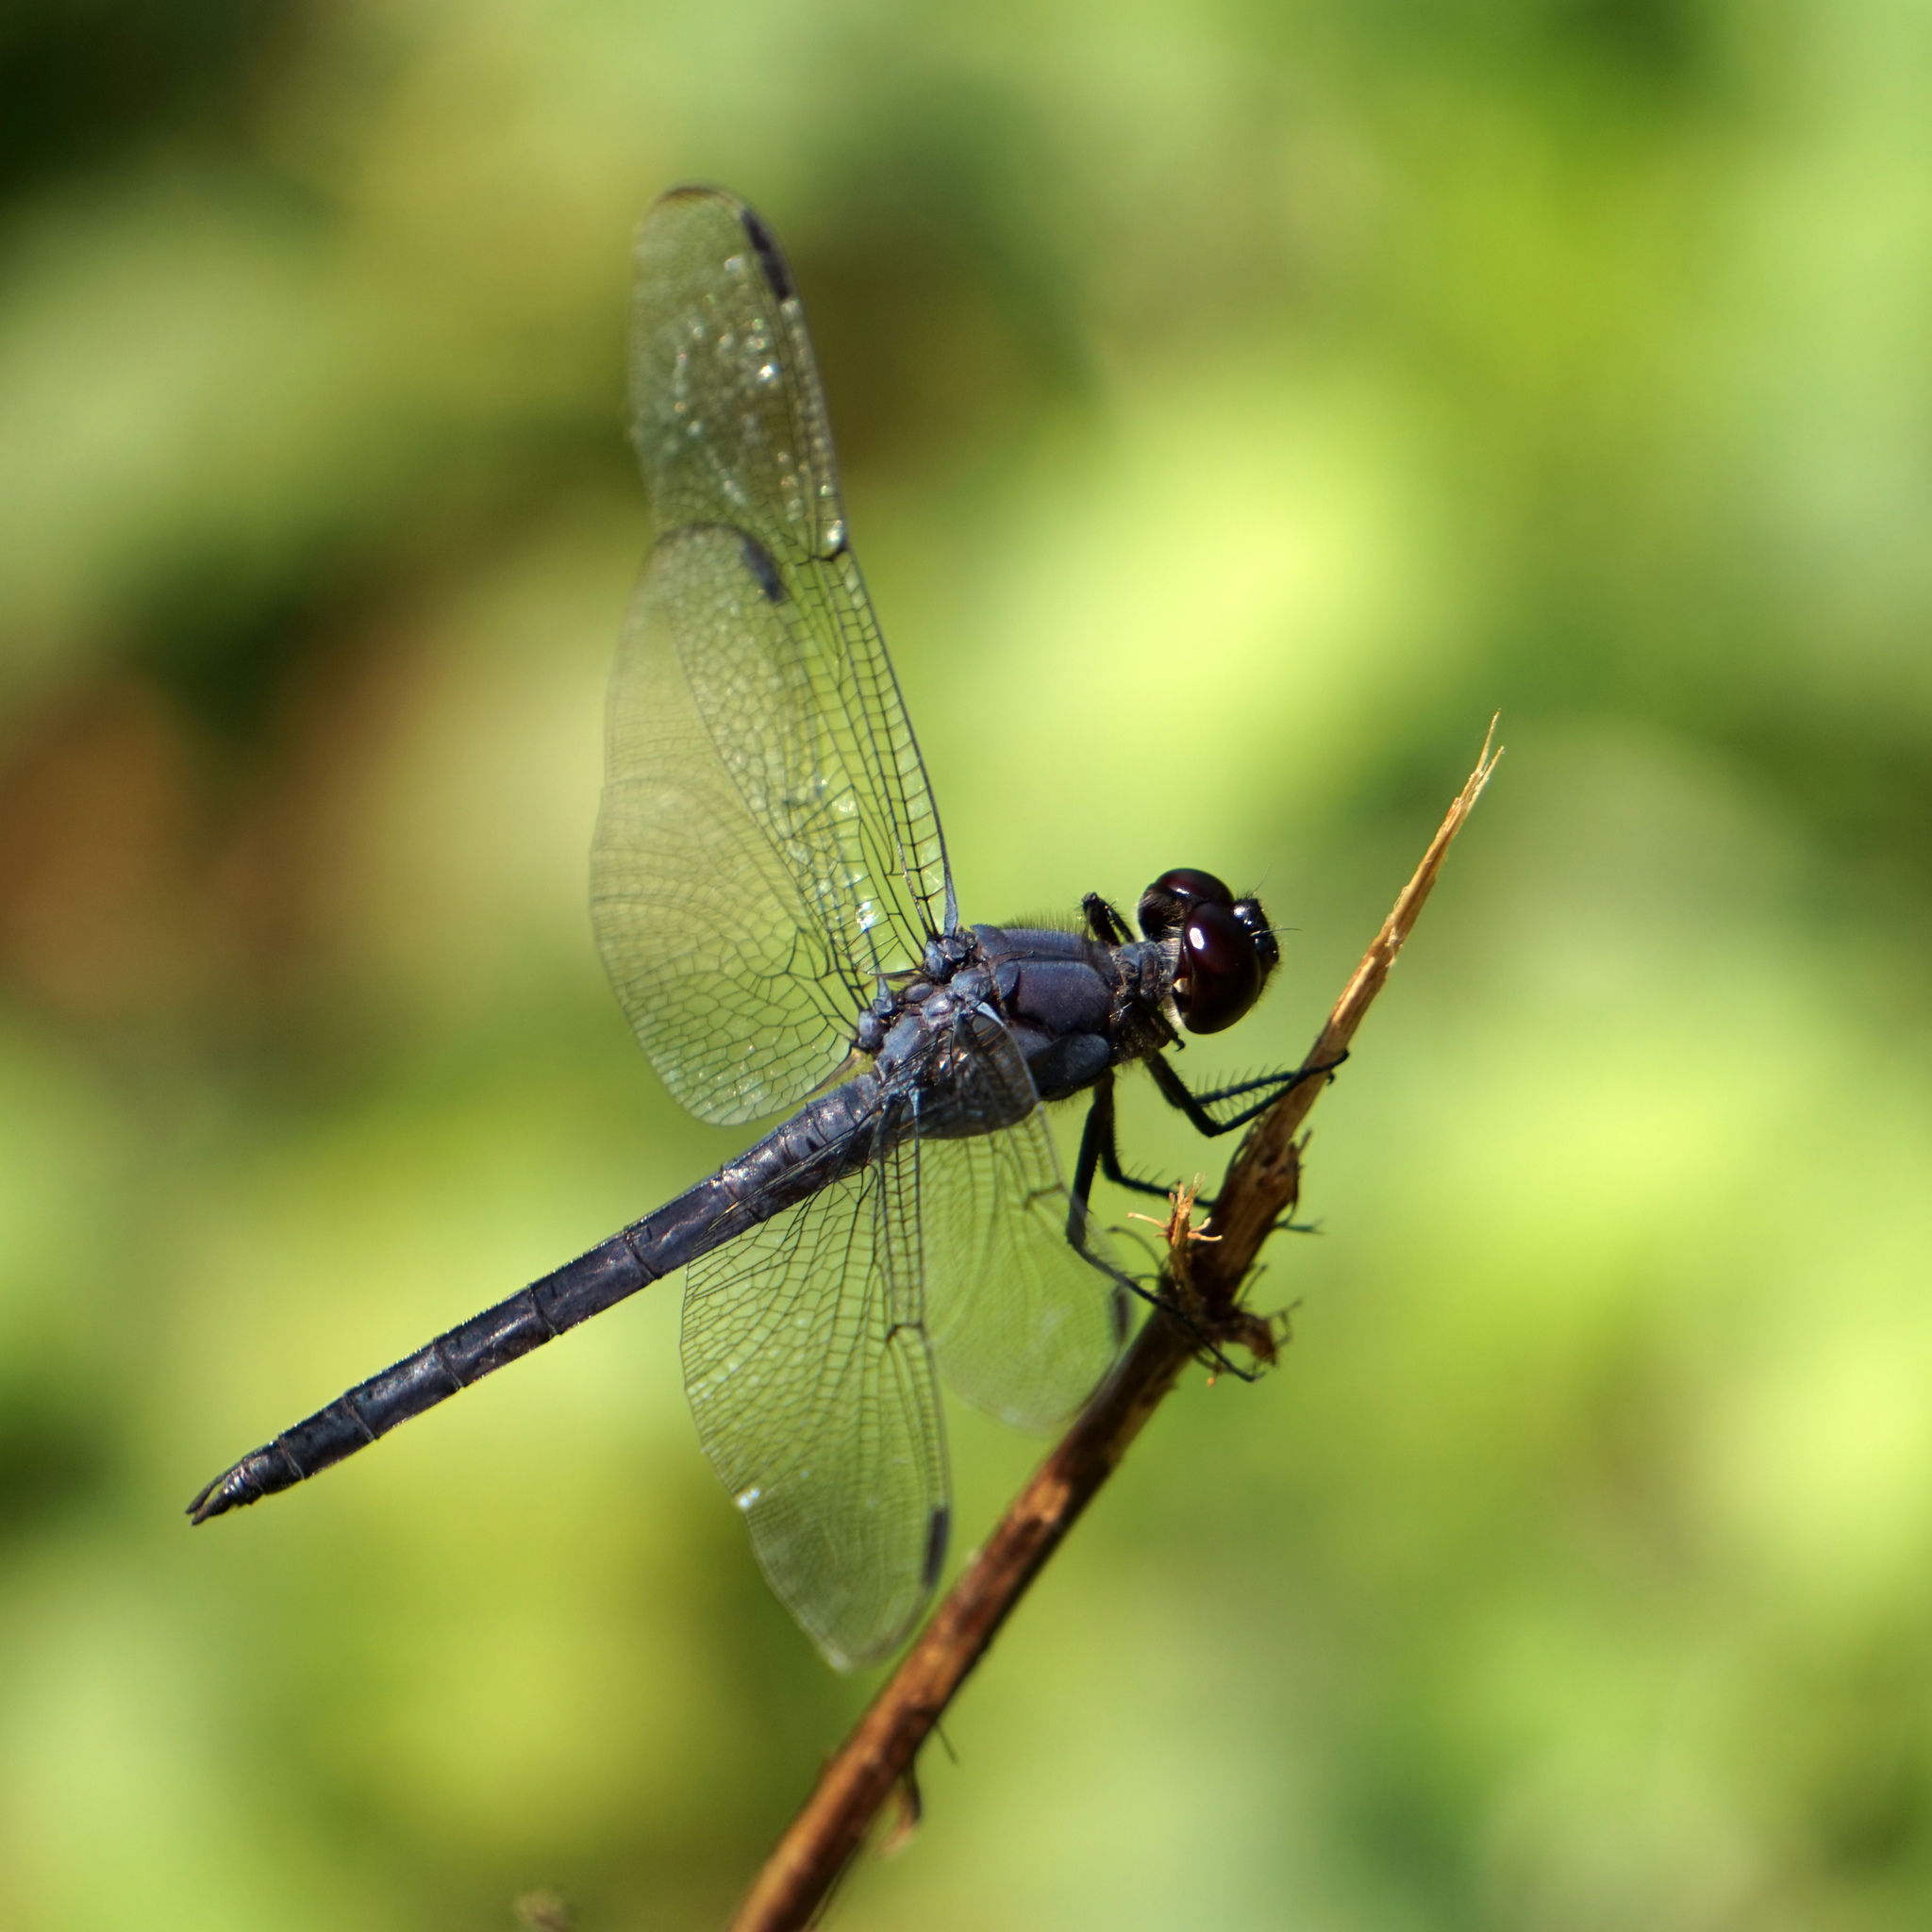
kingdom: Animalia
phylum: Arthropoda
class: Insecta
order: Odonata
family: Libellulidae
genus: Libellula
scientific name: Libellula incesta
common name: Slaty skimmer
